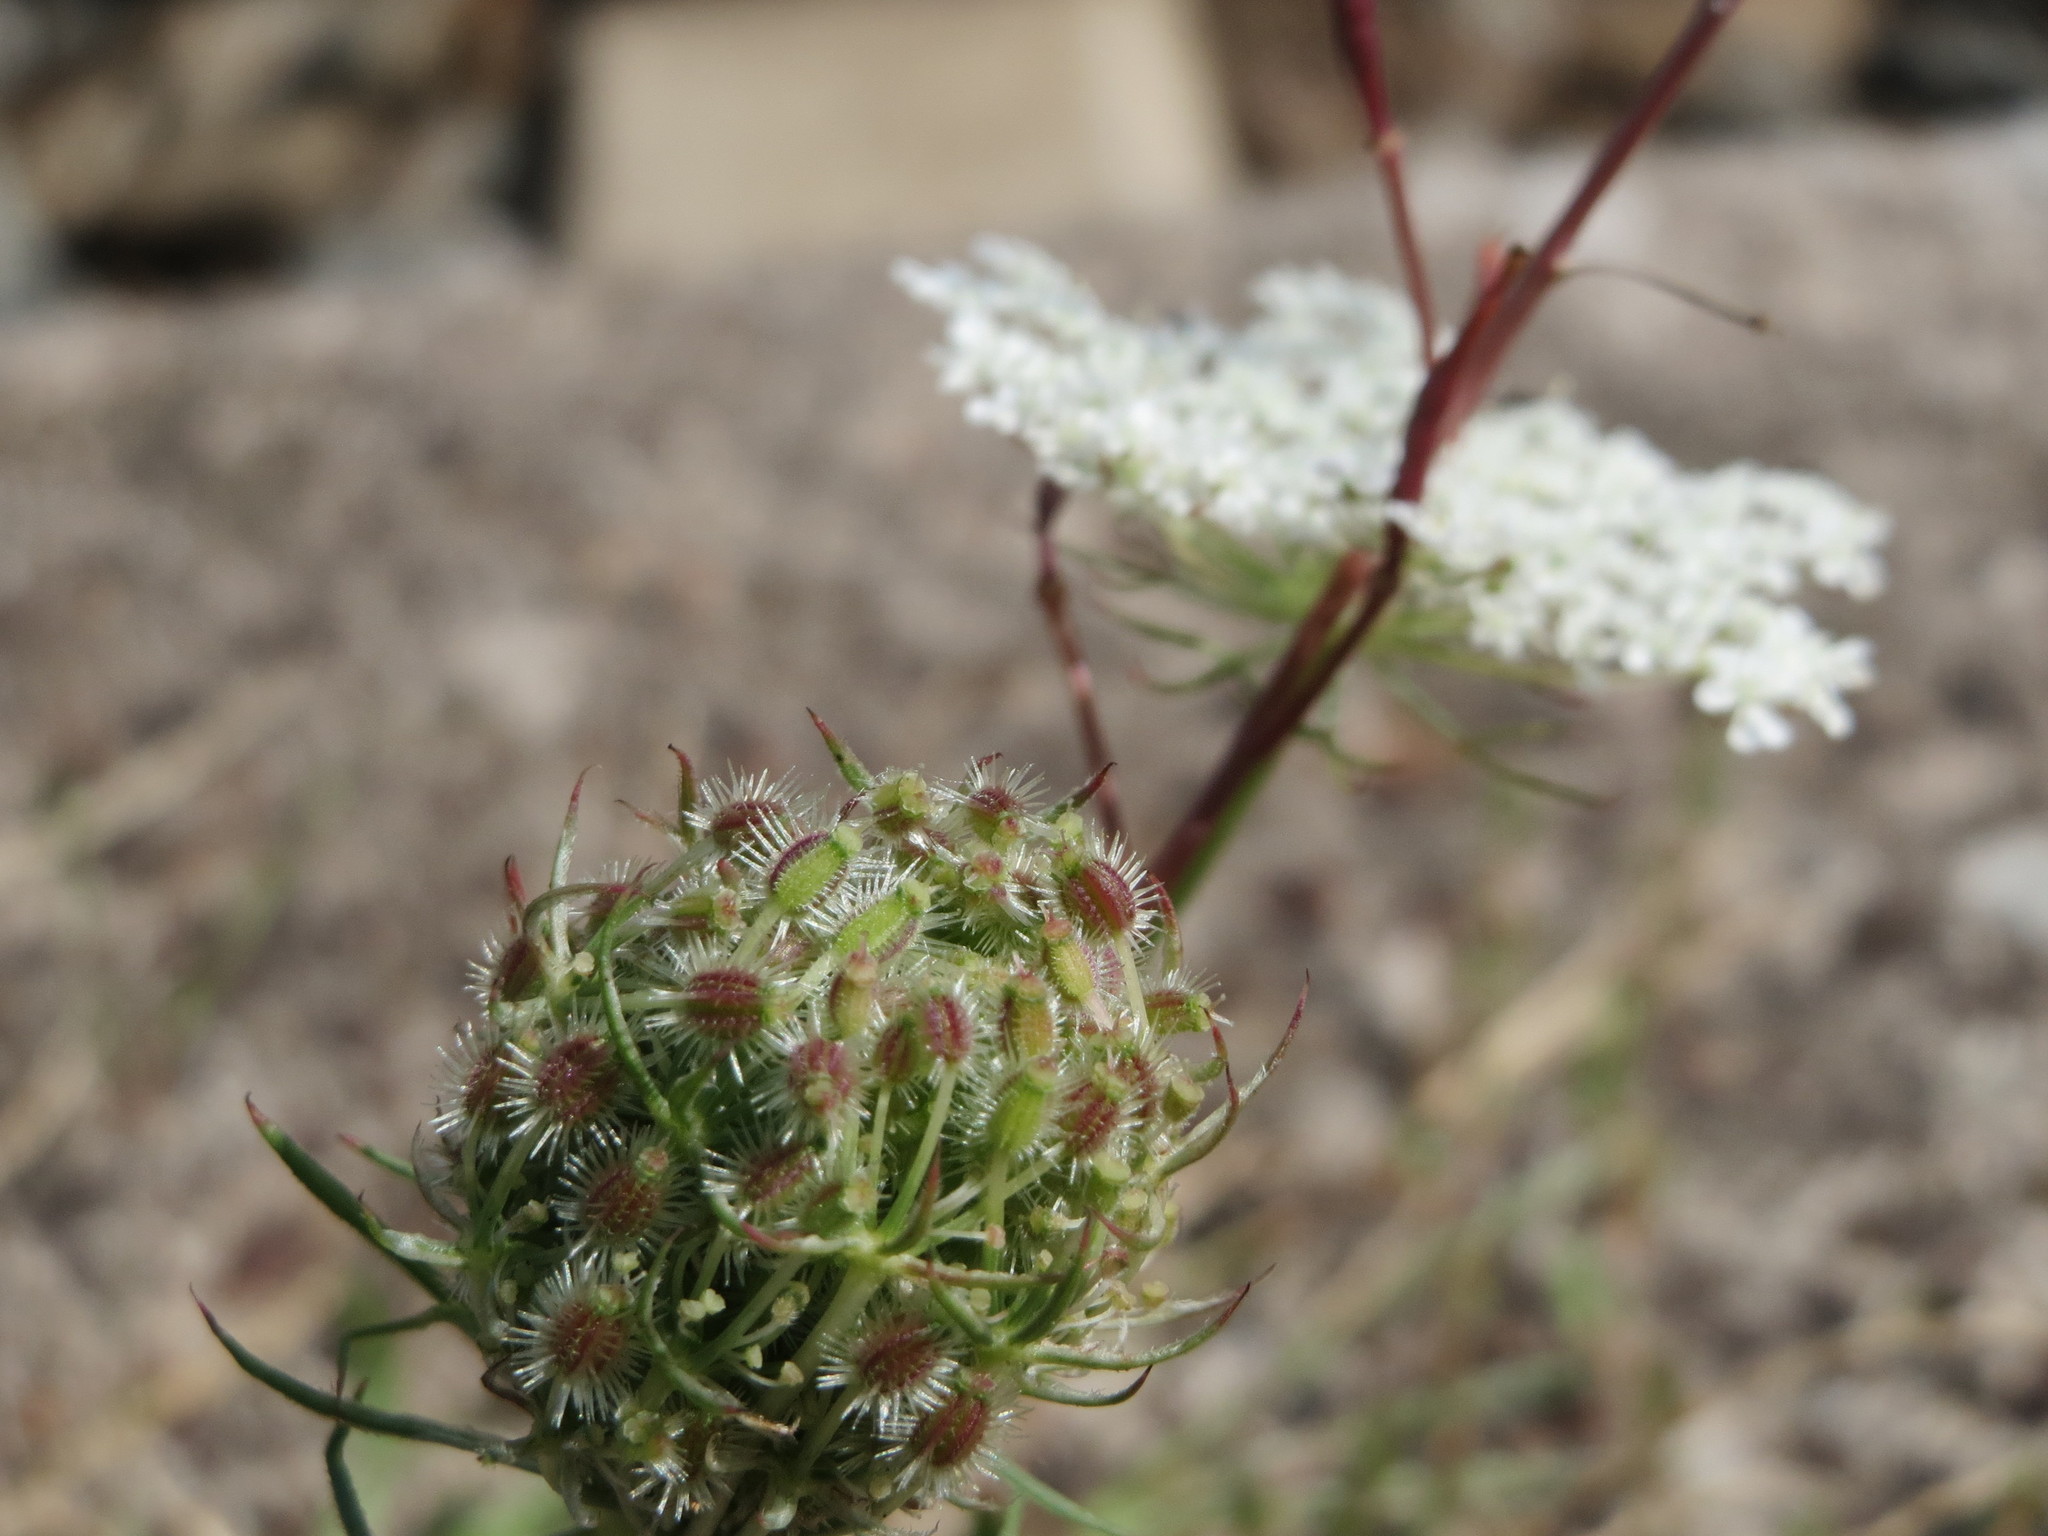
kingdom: Plantae
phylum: Tracheophyta
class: Magnoliopsida
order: Apiales
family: Apiaceae
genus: Daucus
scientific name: Daucus carota
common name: Wild carrot
